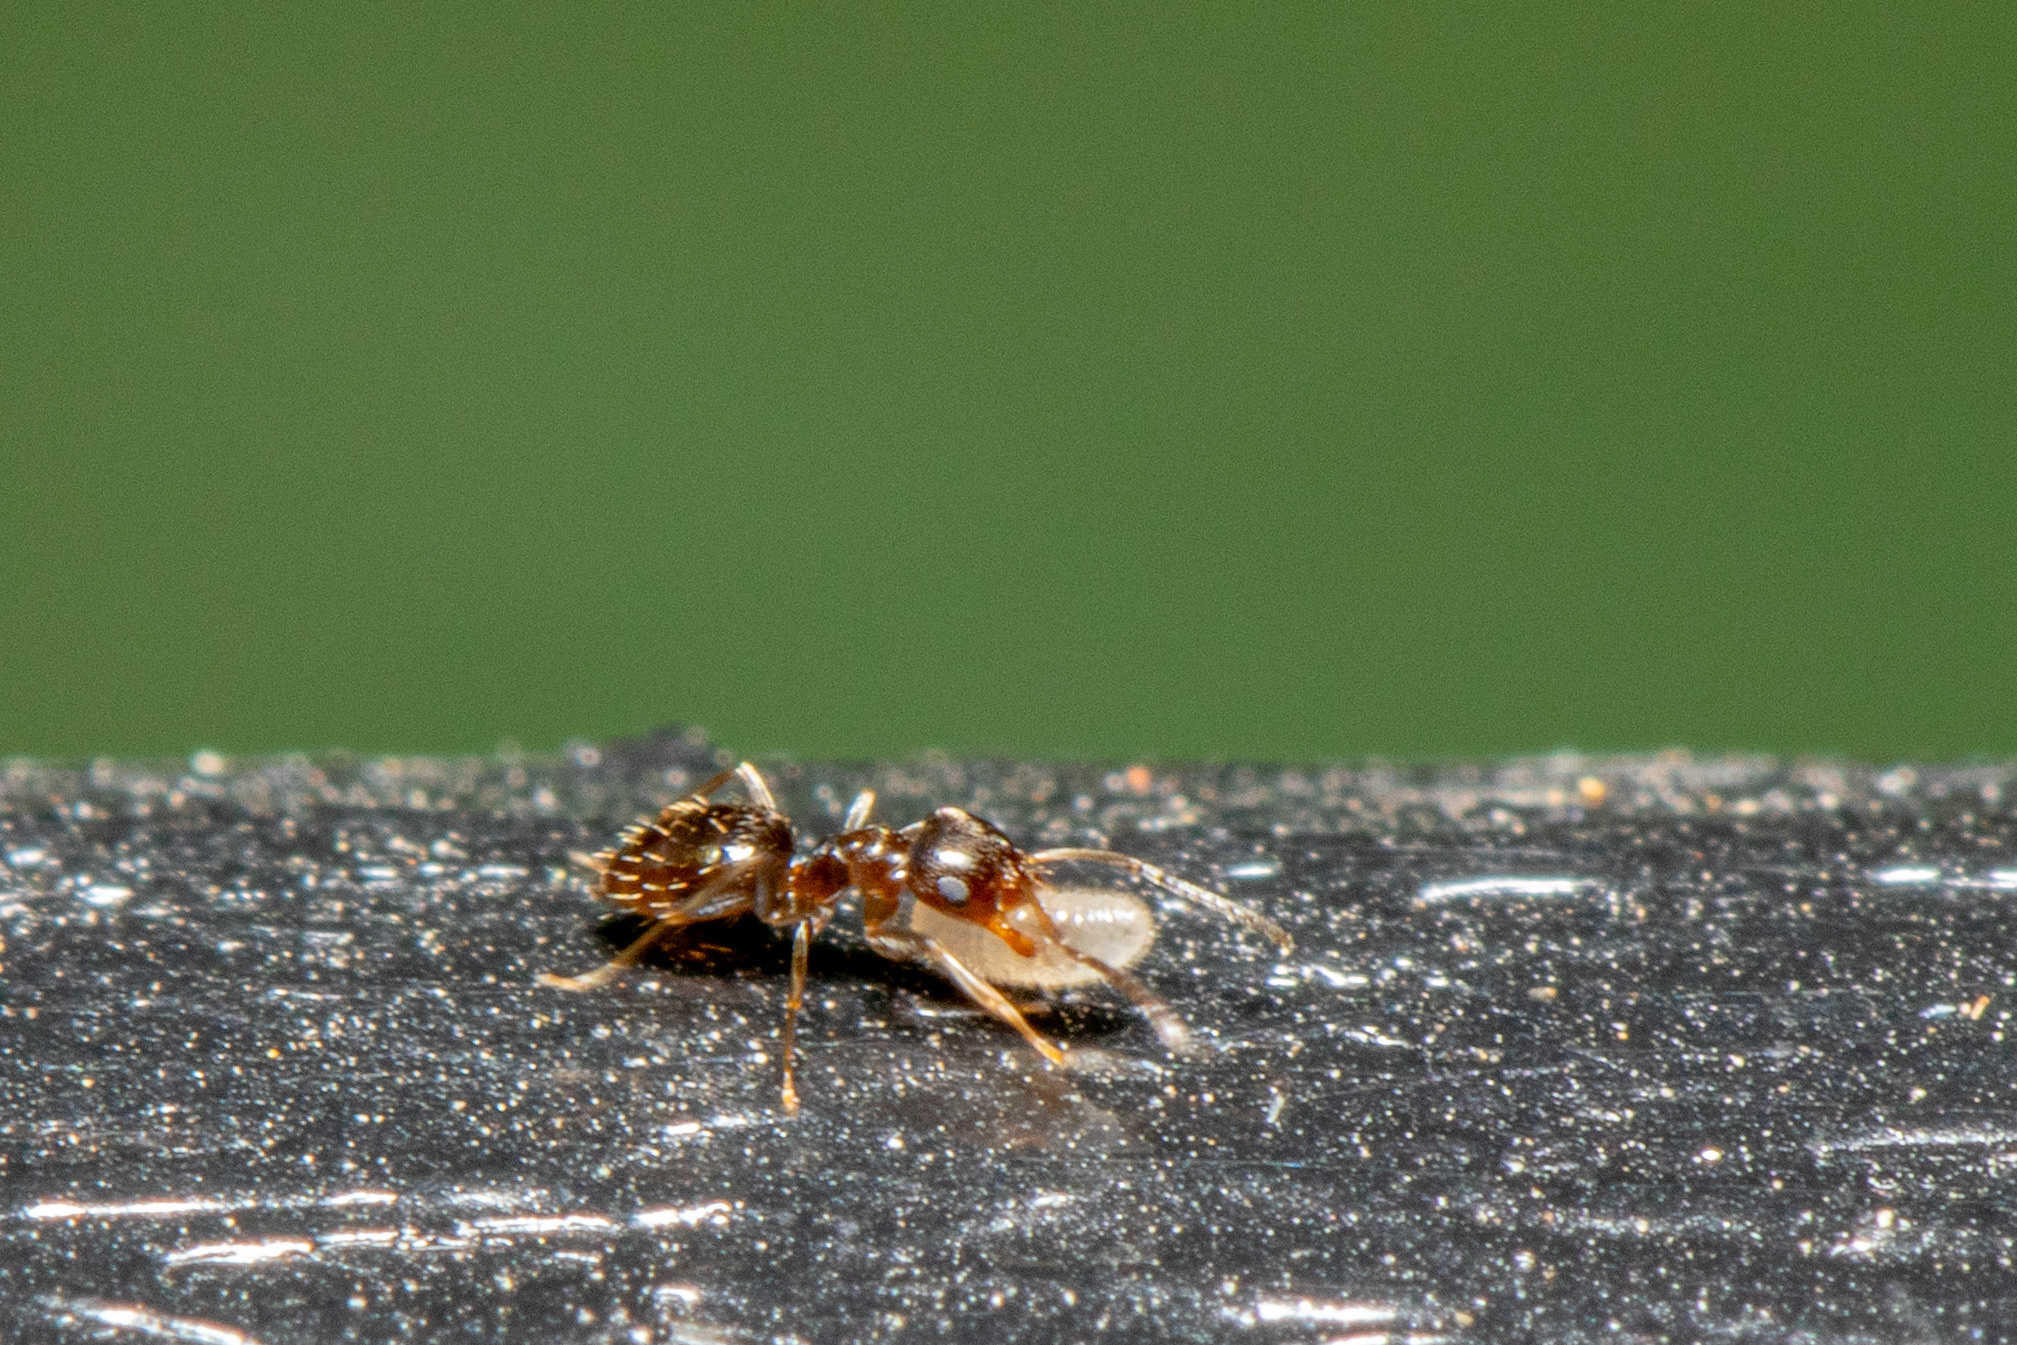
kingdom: Animalia
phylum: Arthropoda
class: Insecta
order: Hymenoptera
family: Formicidae
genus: Brachymyrmex
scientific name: Brachymyrmex patagonicus
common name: Dark rover ant
